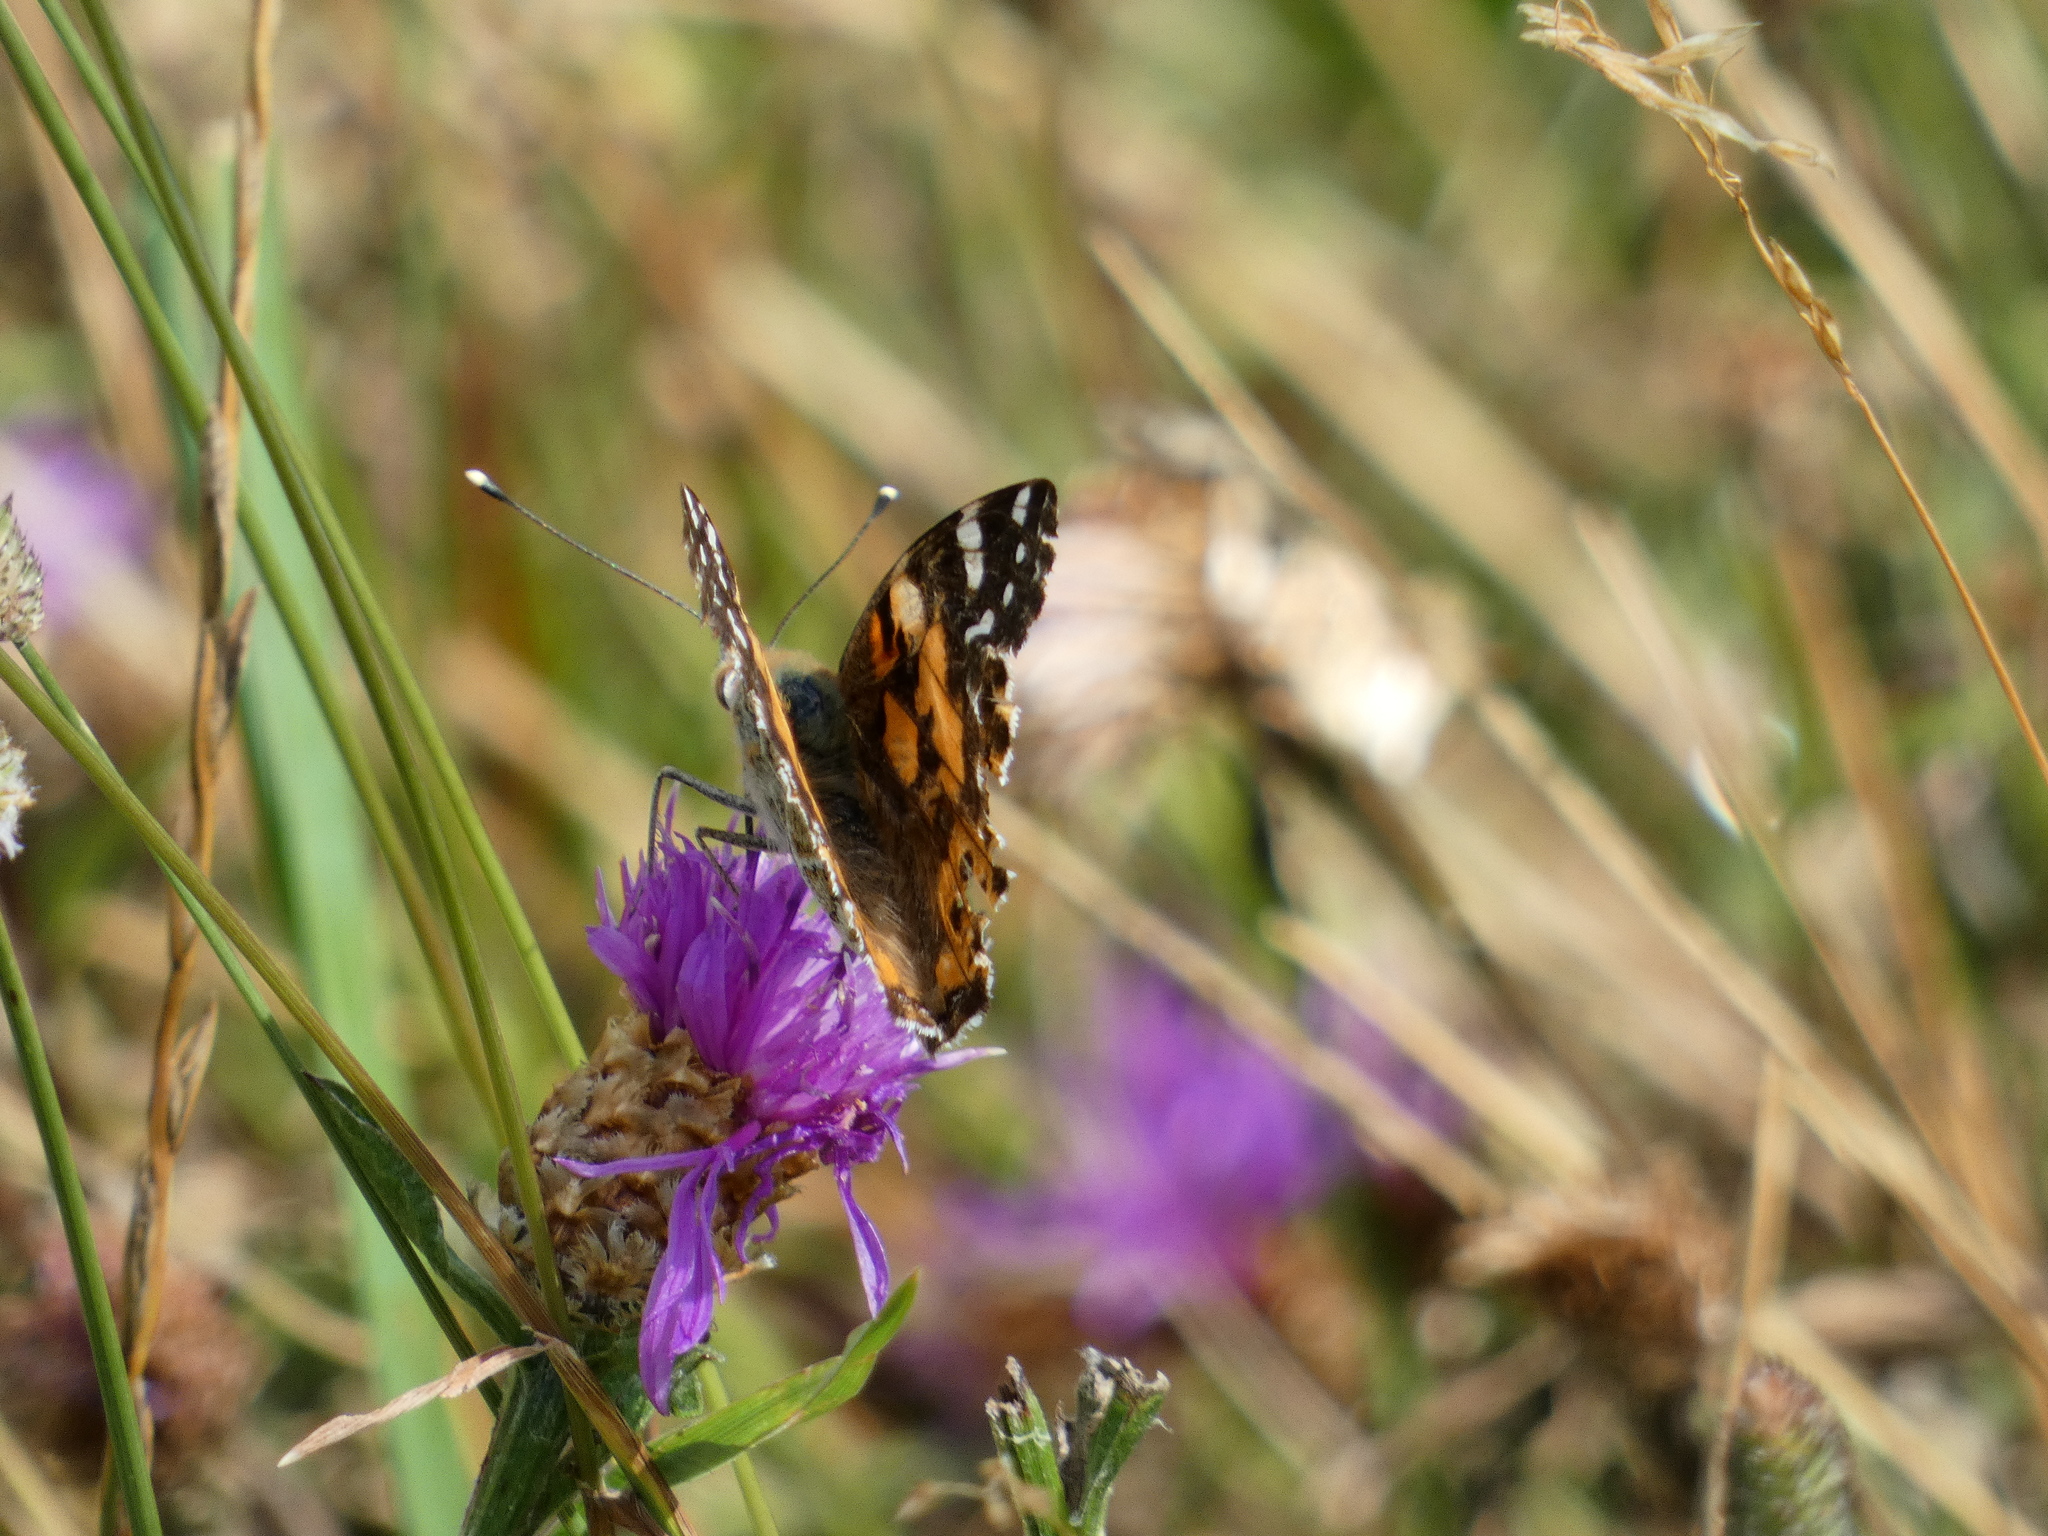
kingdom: Animalia
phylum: Arthropoda
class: Insecta
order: Lepidoptera
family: Nymphalidae
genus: Vanessa
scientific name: Vanessa cardui
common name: Painted lady
